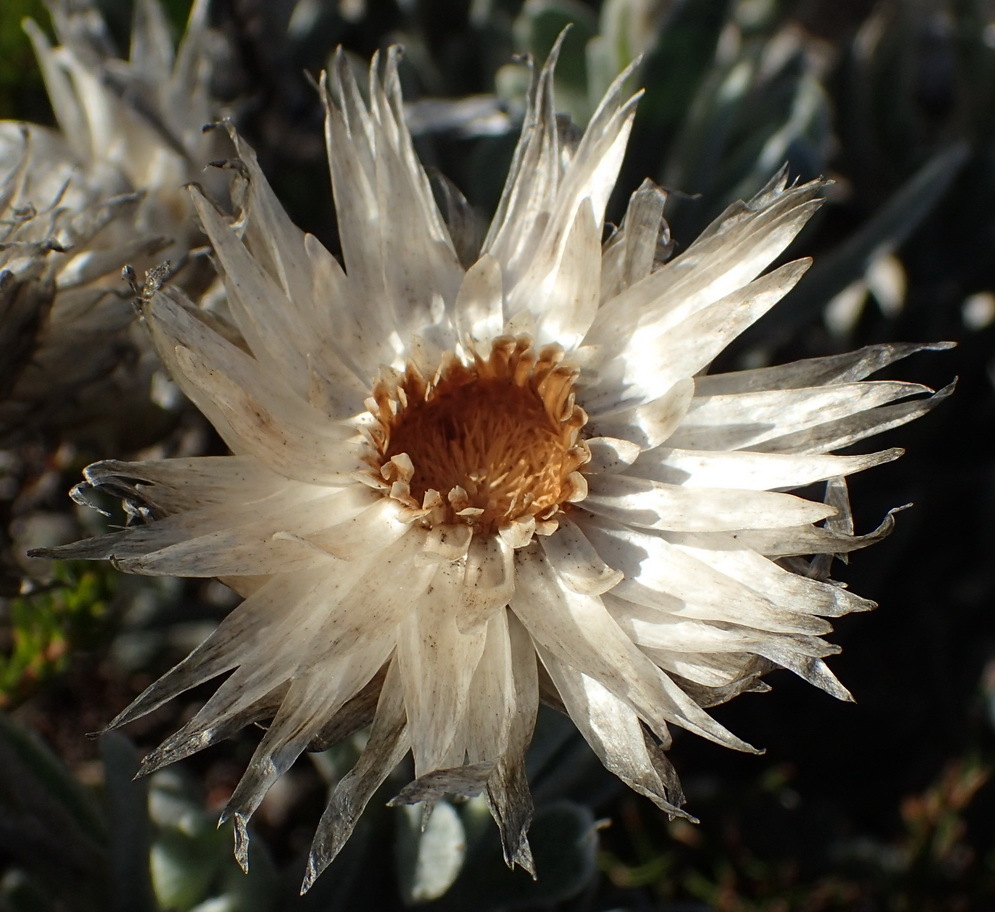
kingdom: Plantae
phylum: Tracheophyta
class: Magnoliopsida
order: Asterales
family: Asteraceae
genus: Syncarpha
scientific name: Syncarpha vestita
